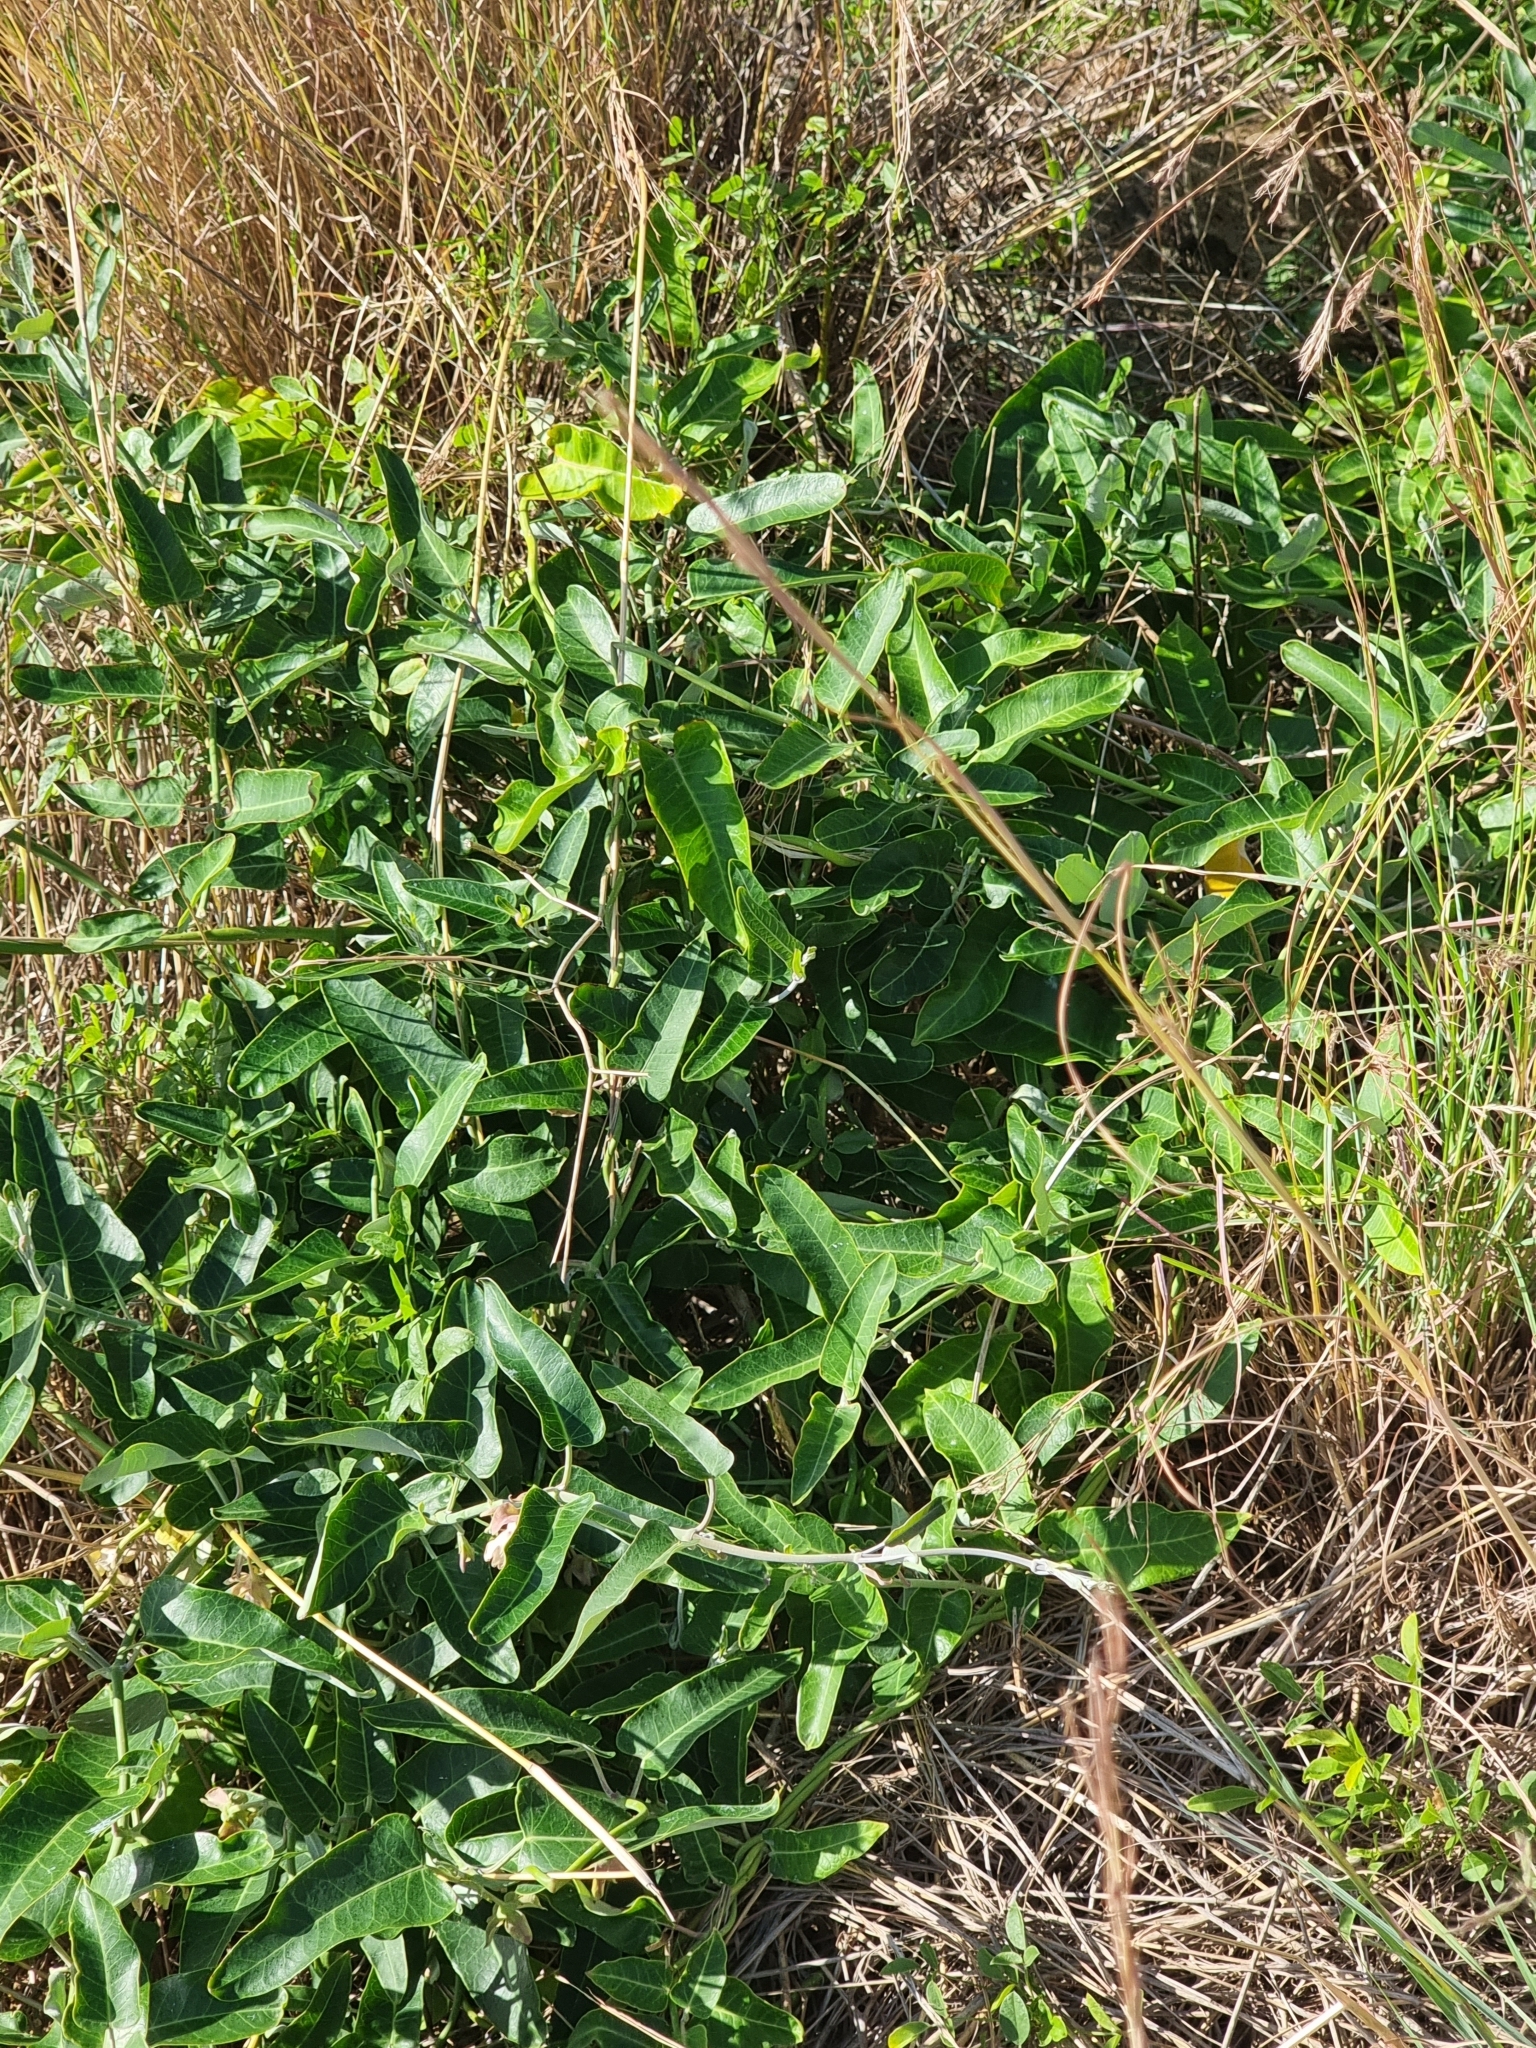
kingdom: Plantae
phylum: Tracheophyta
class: Magnoliopsida
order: Gentianales
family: Apocynaceae
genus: Araujia
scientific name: Araujia sericifera
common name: White bladderflower
